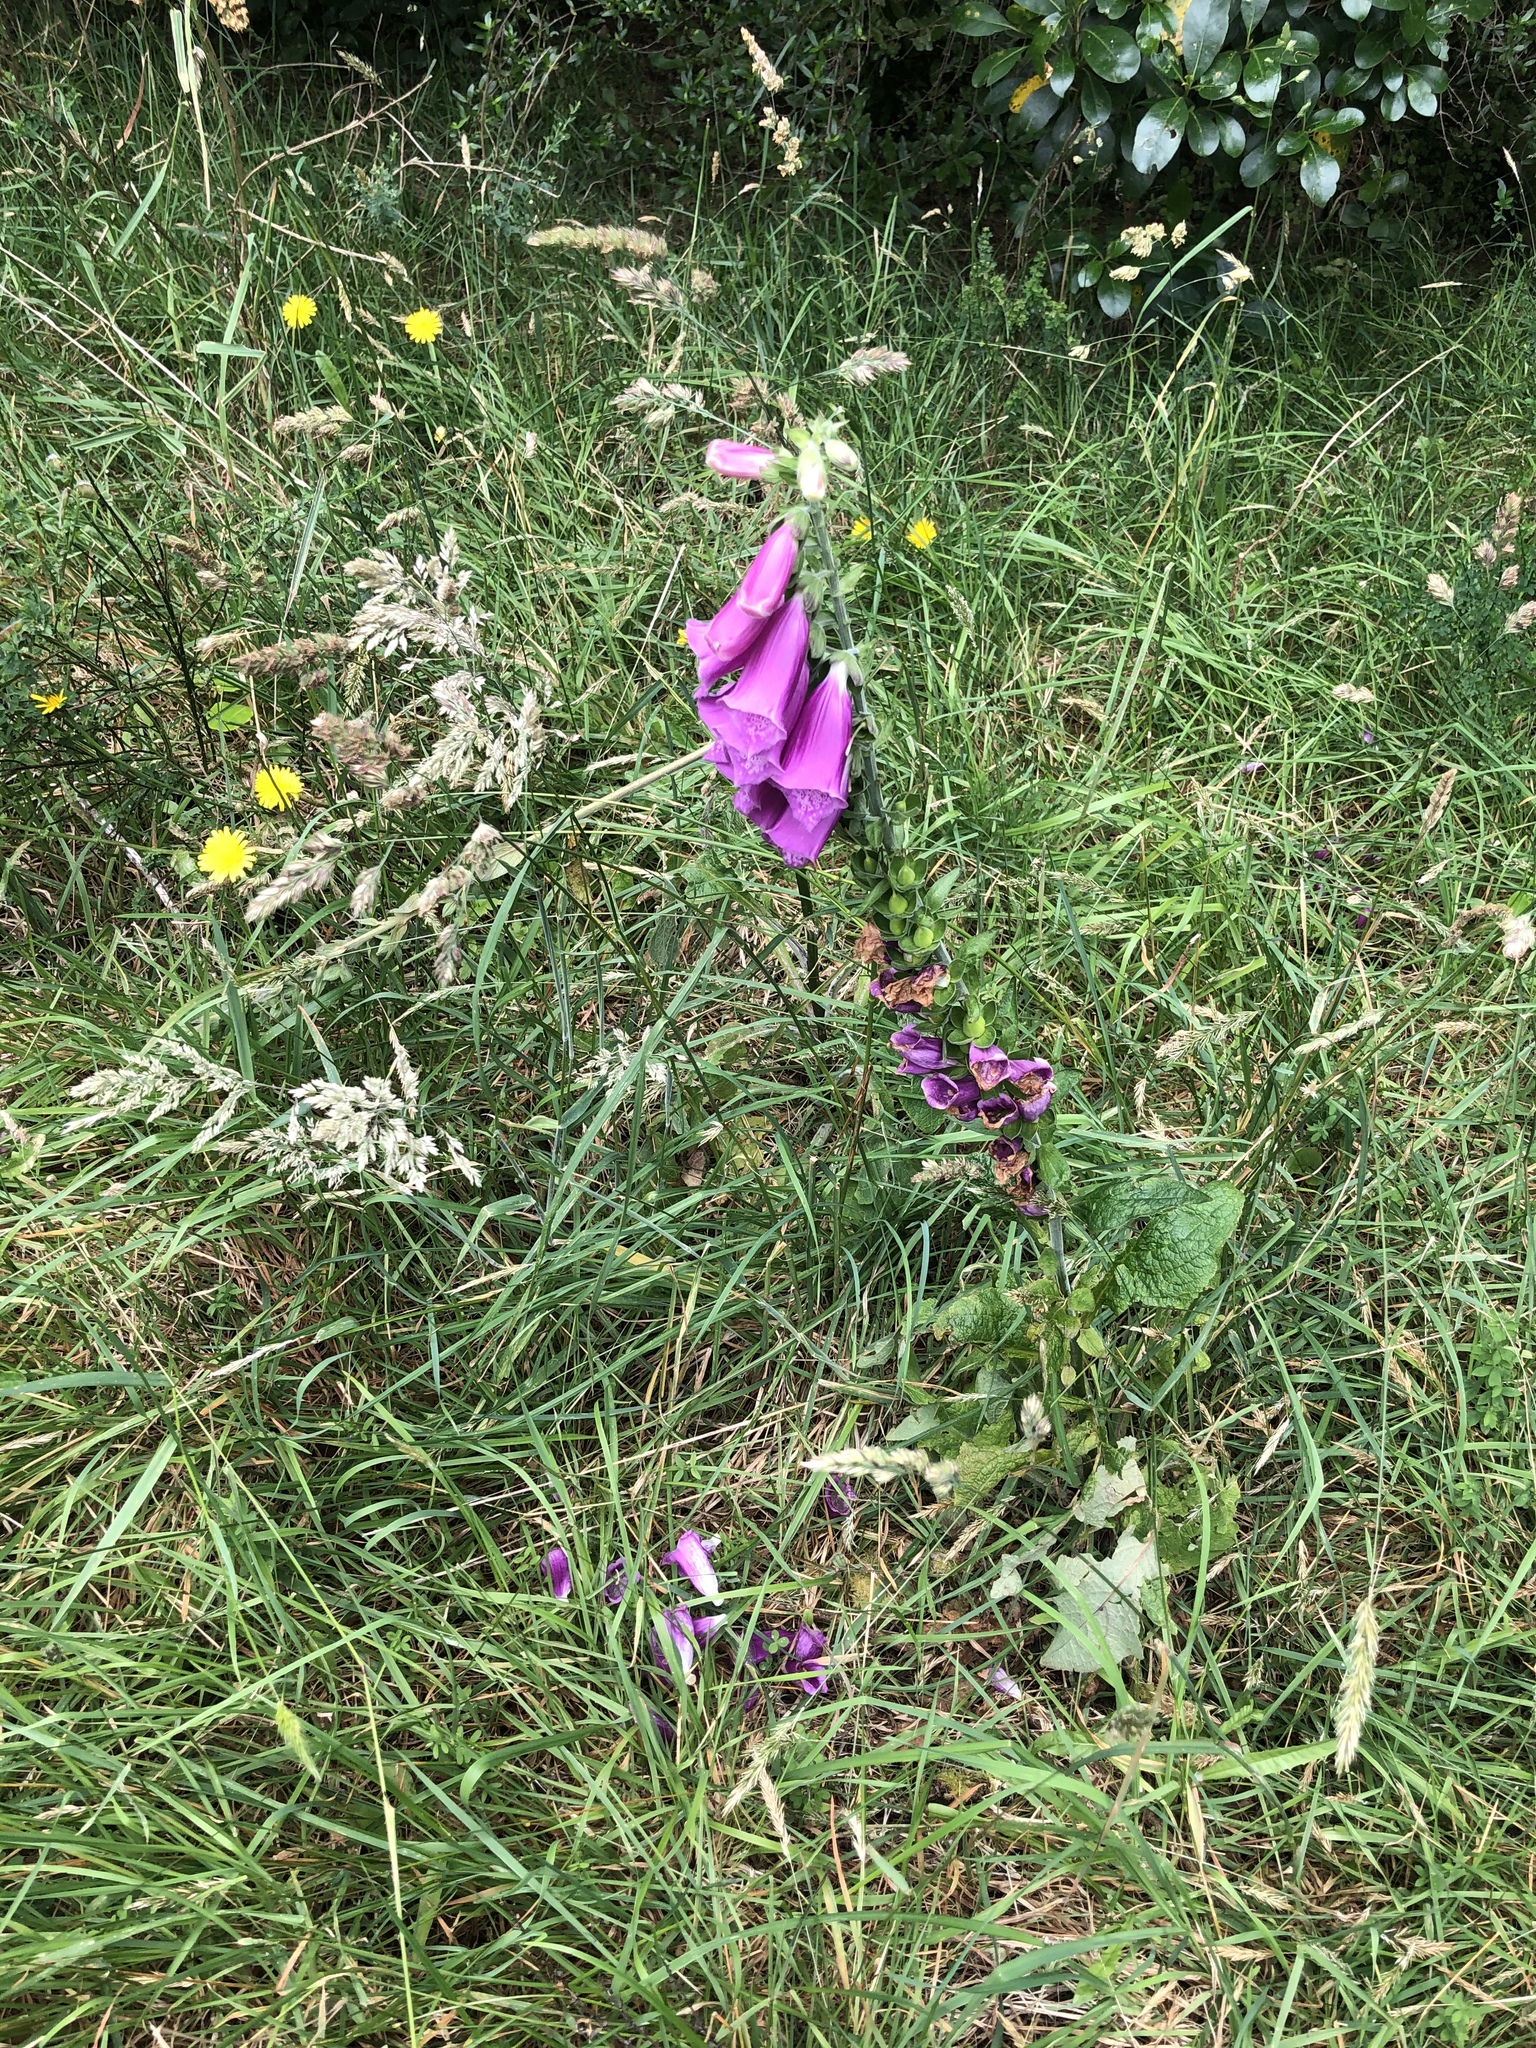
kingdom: Plantae
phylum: Tracheophyta
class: Magnoliopsida
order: Lamiales
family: Plantaginaceae
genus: Digitalis
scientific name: Digitalis purpurea
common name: Foxglove
